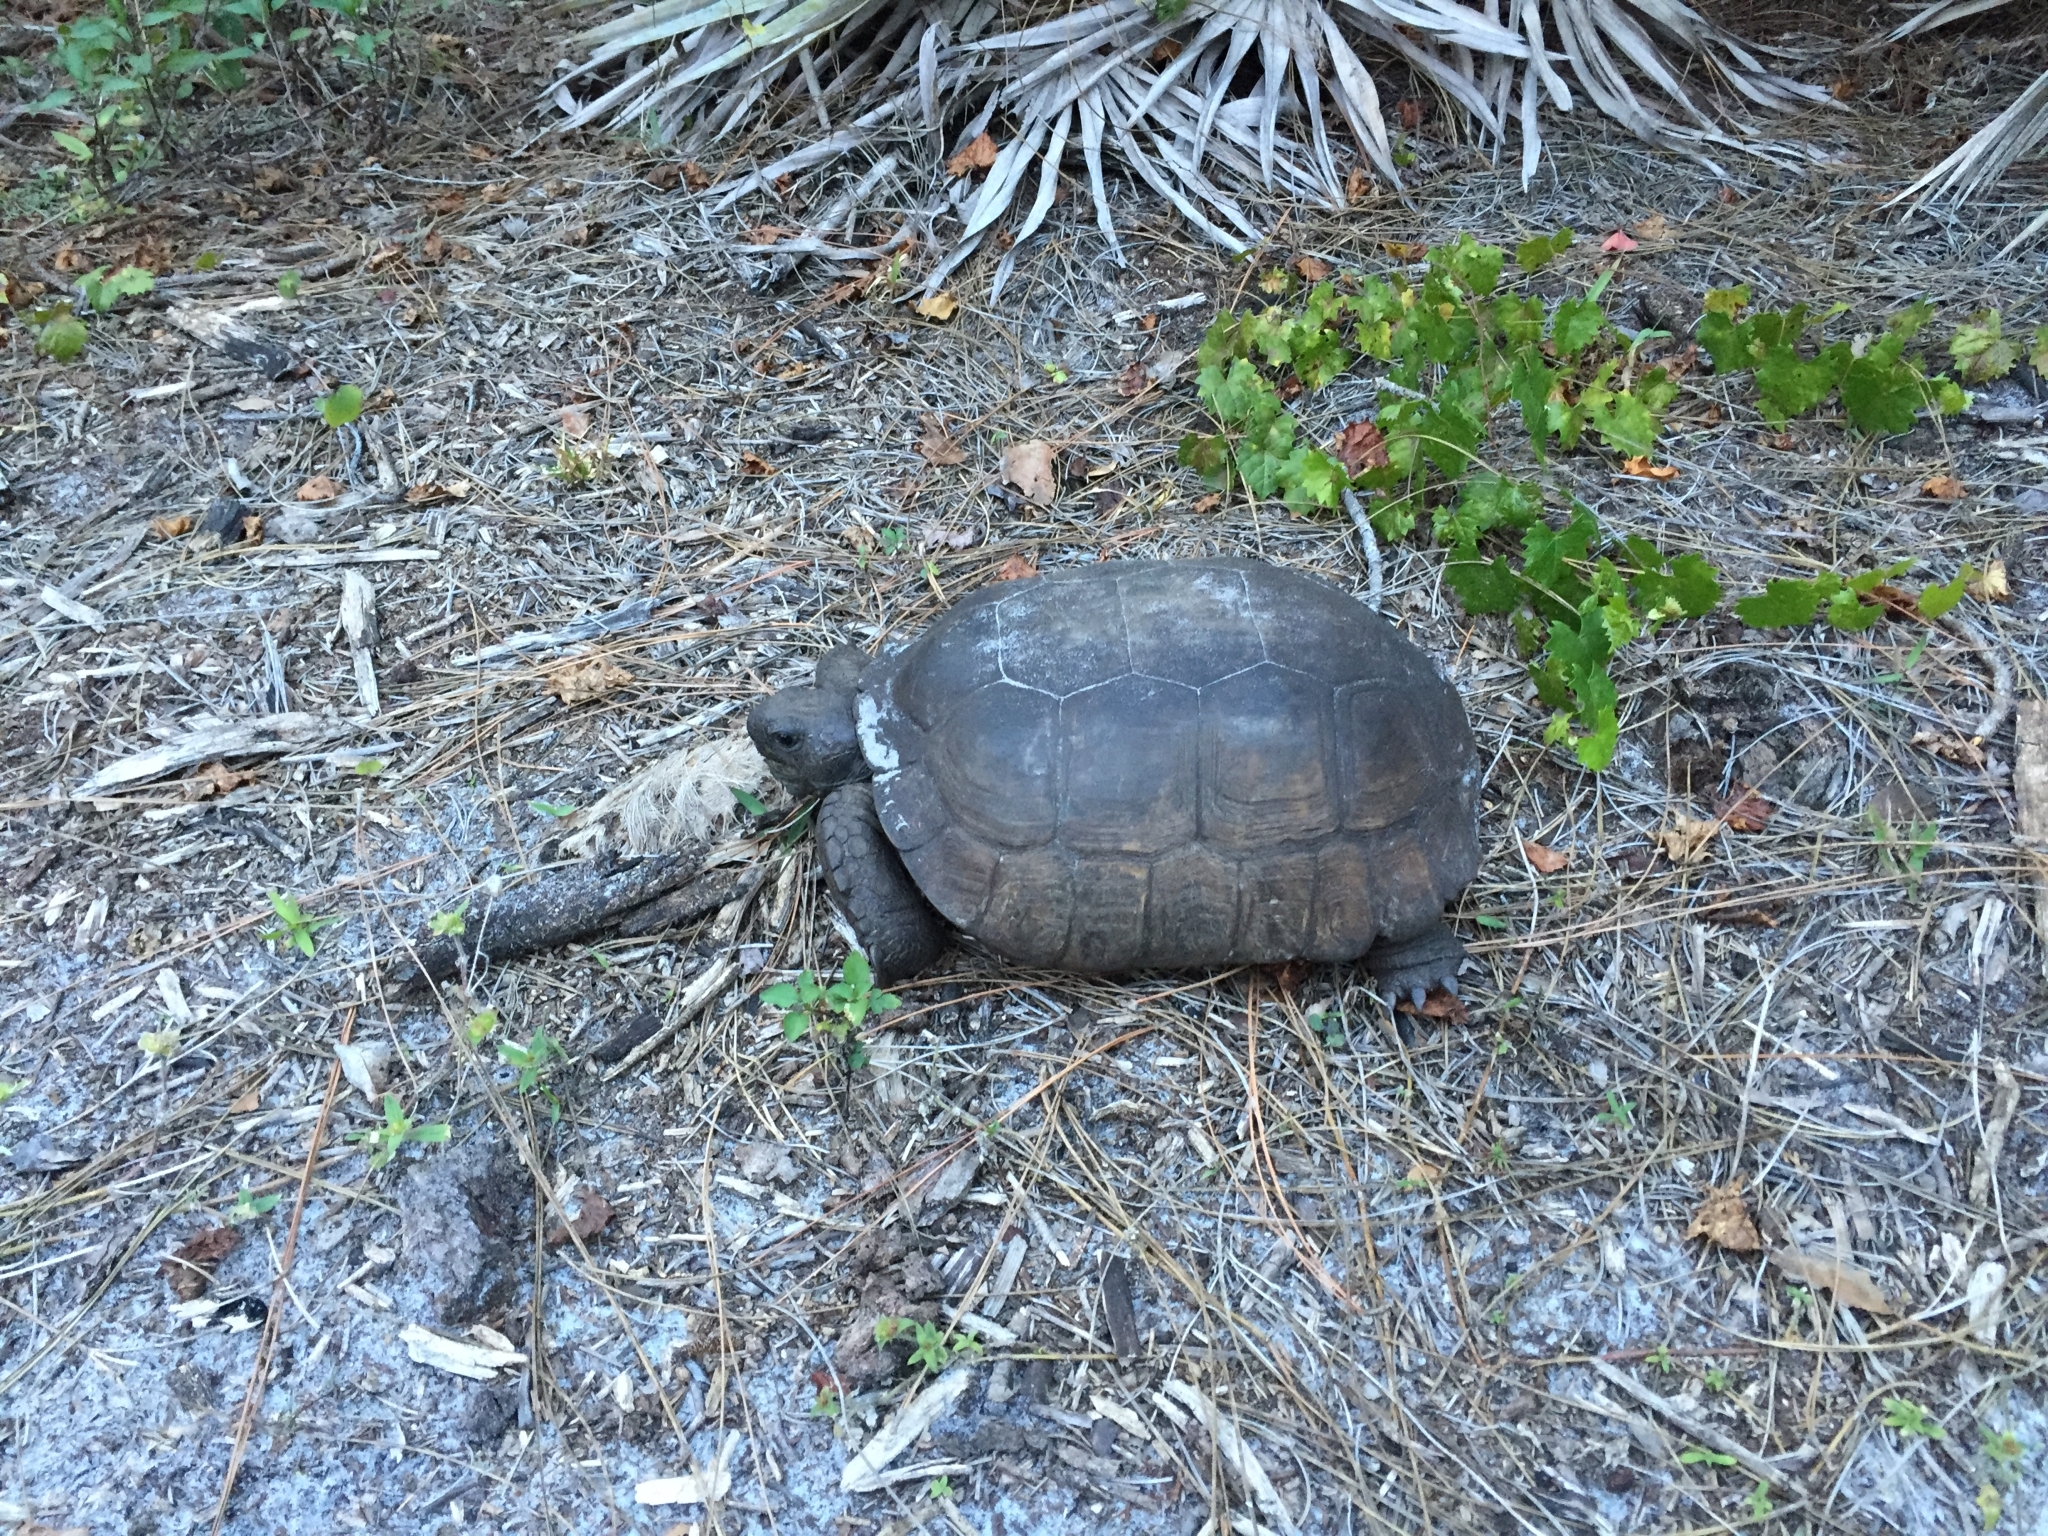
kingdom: Animalia
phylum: Chordata
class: Testudines
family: Testudinidae
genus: Gopherus
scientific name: Gopherus polyphemus
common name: Florida gopher tortoise
